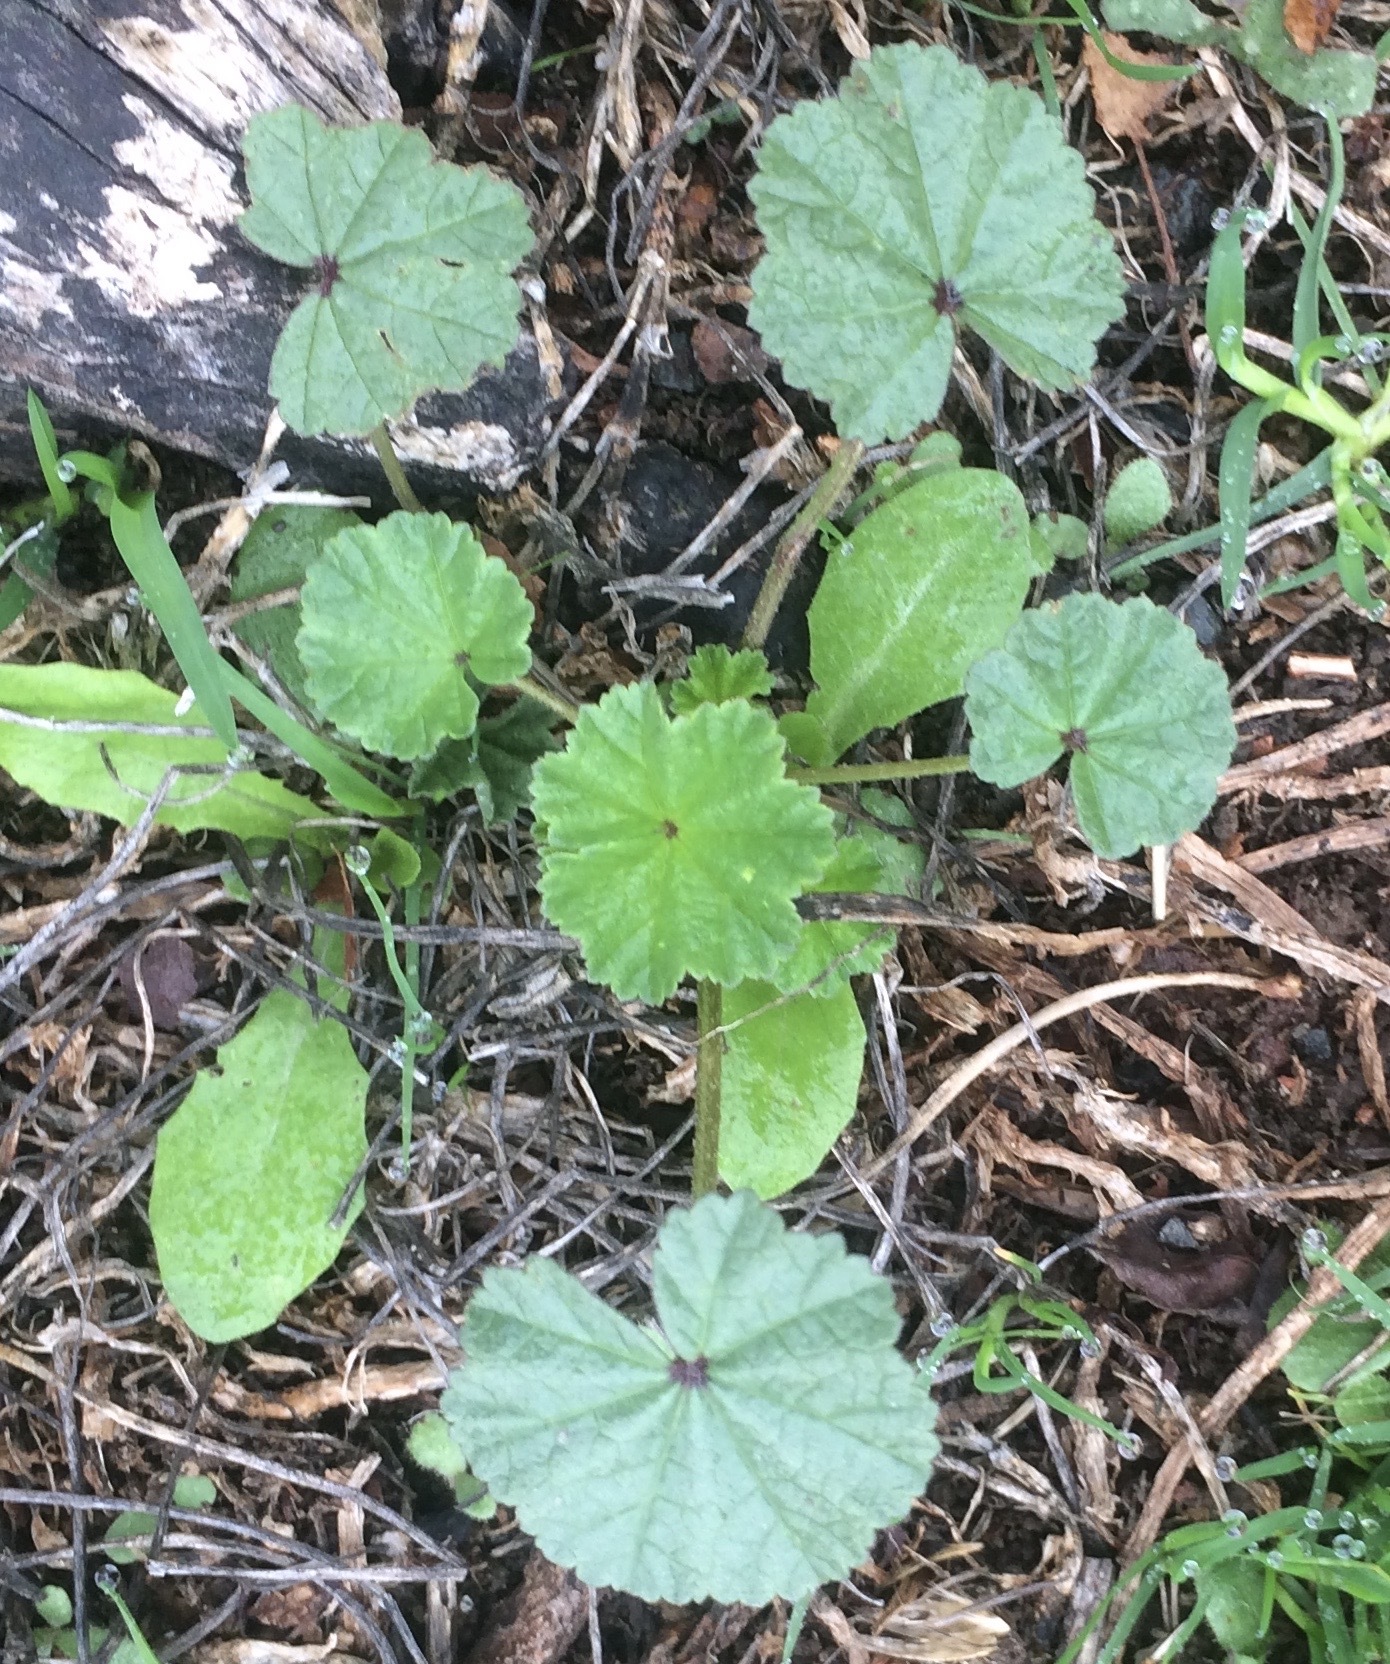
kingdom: Plantae
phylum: Tracheophyta
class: Magnoliopsida
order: Malvales
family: Malvaceae
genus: Malva
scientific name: Malva
